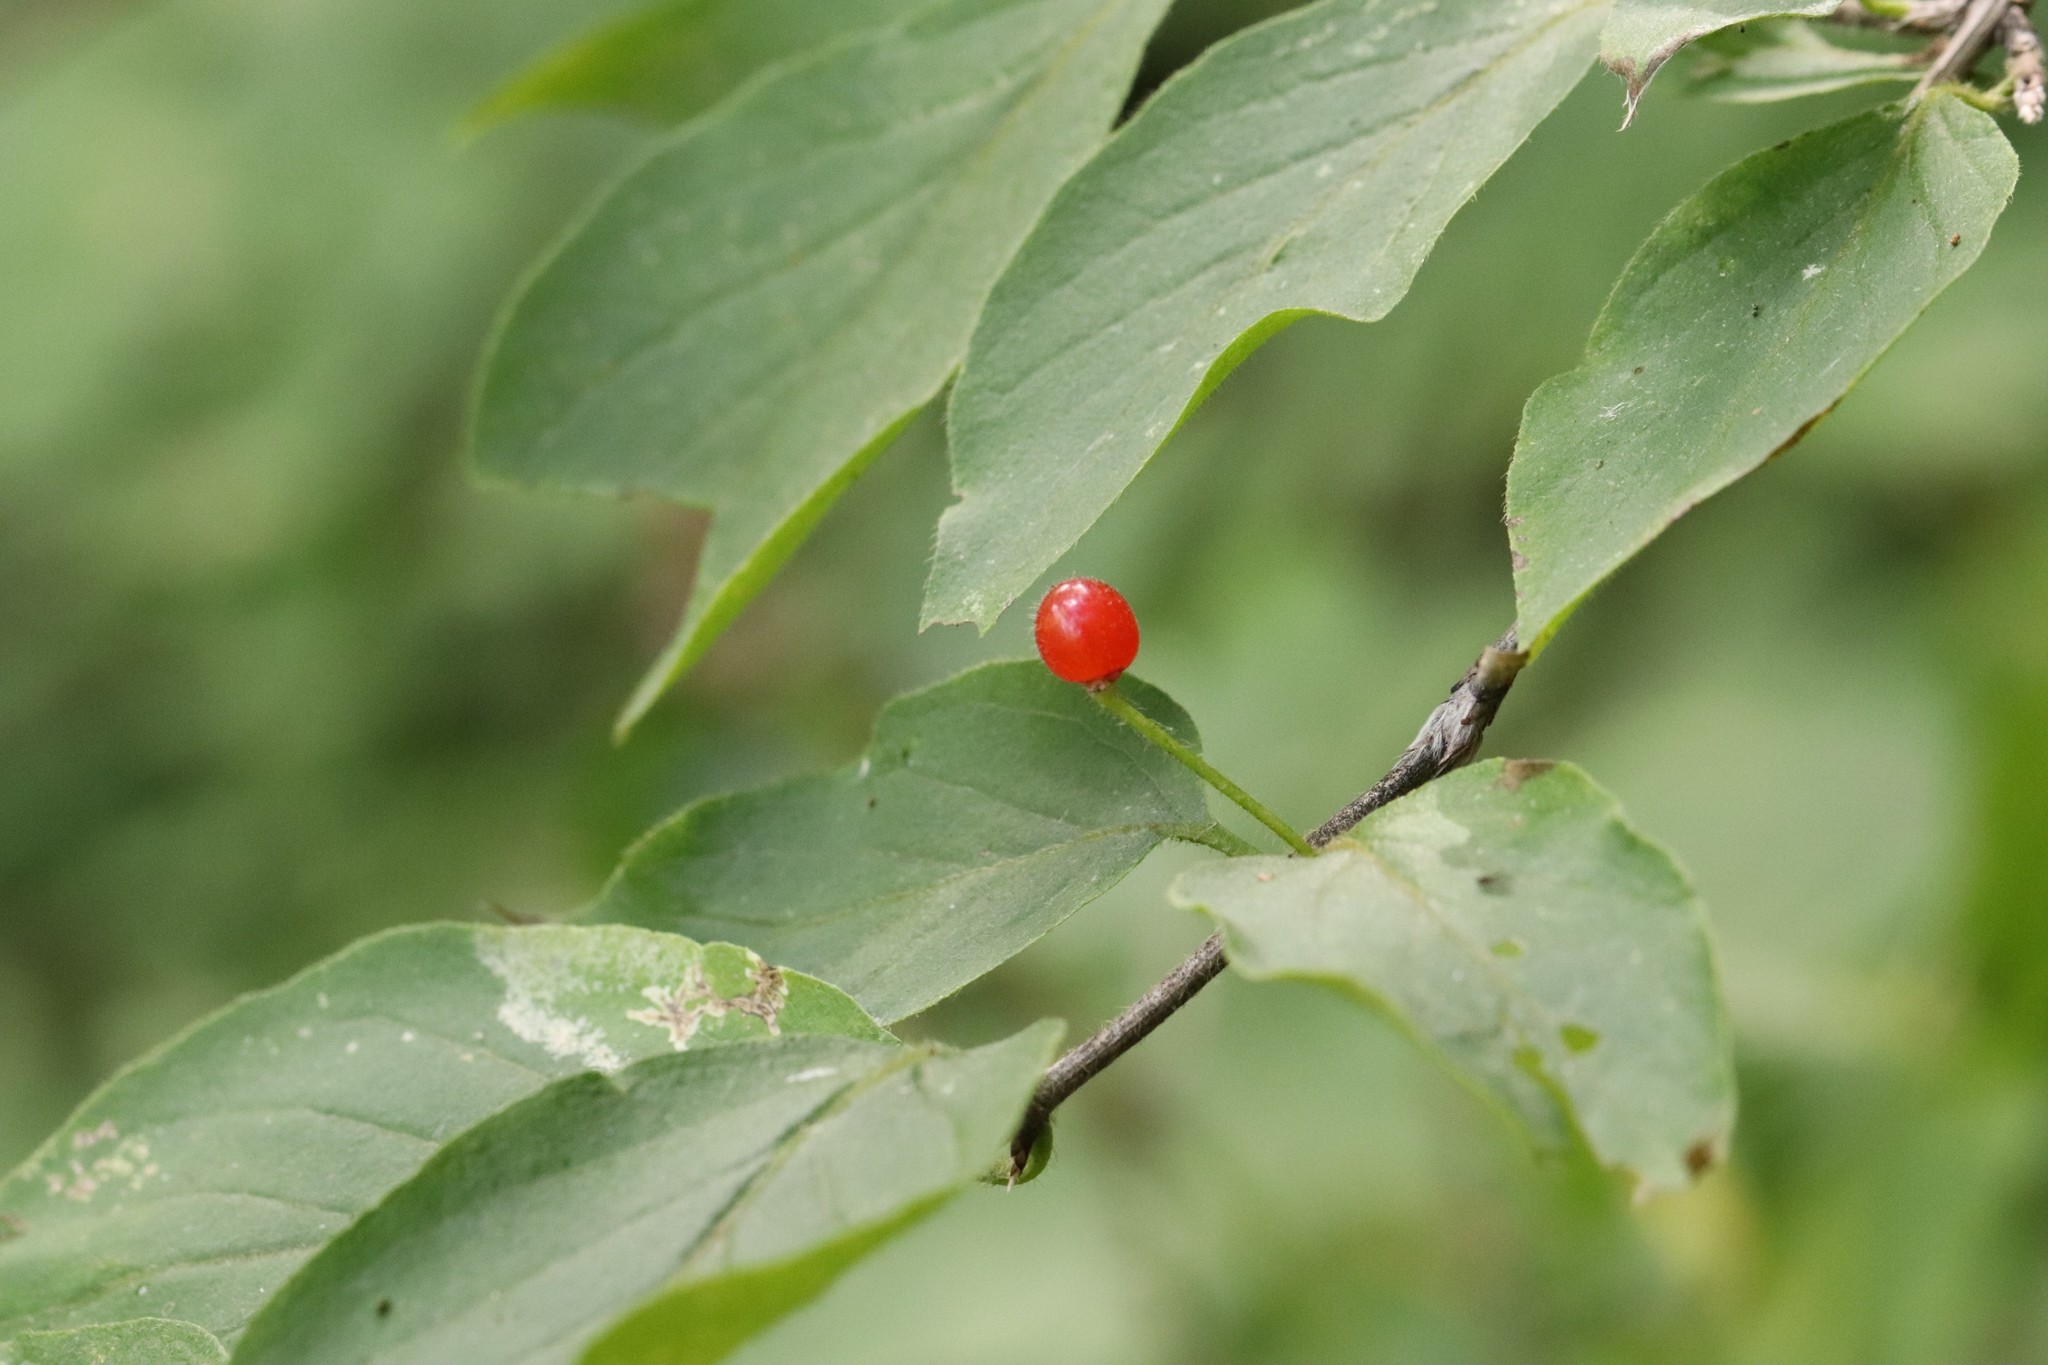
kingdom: Plantae
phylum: Tracheophyta
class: Magnoliopsida
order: Dipsacales
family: Caprifoliaceae
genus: Lonicera
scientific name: Lonicera chrysantha
